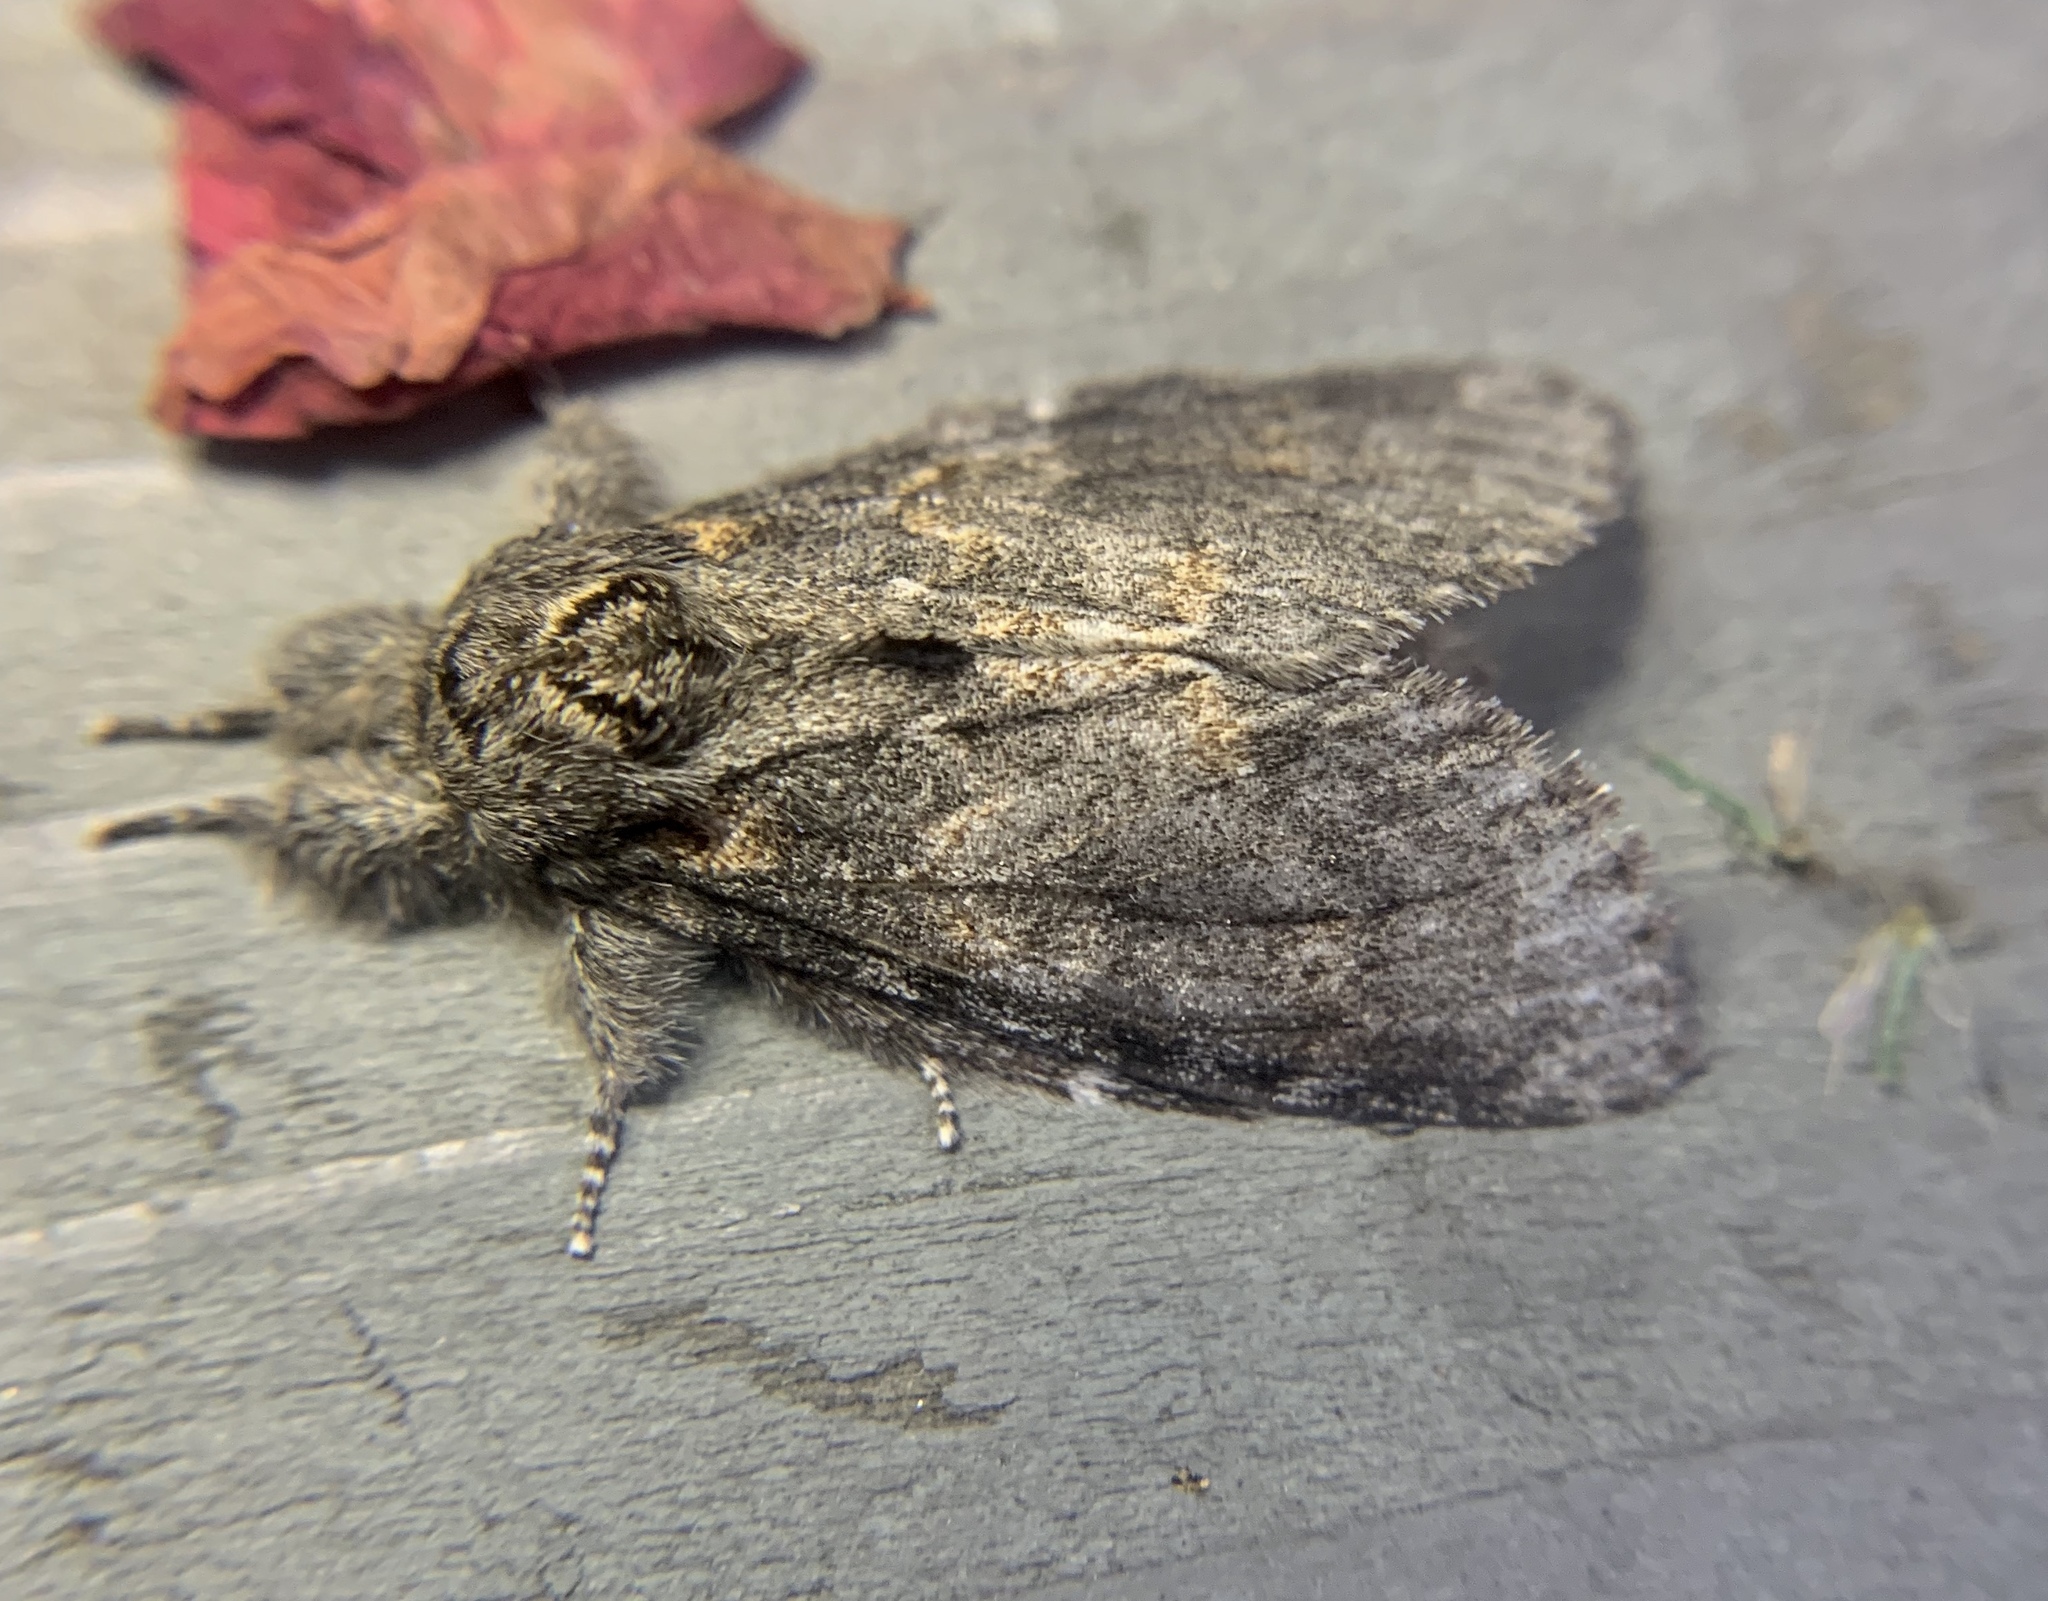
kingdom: Animalia
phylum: Arthropoda
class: Insecta
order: Lepidoptera
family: Notodontidae
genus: Peridea
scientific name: Peridea angulosa
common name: Angulose prominent
